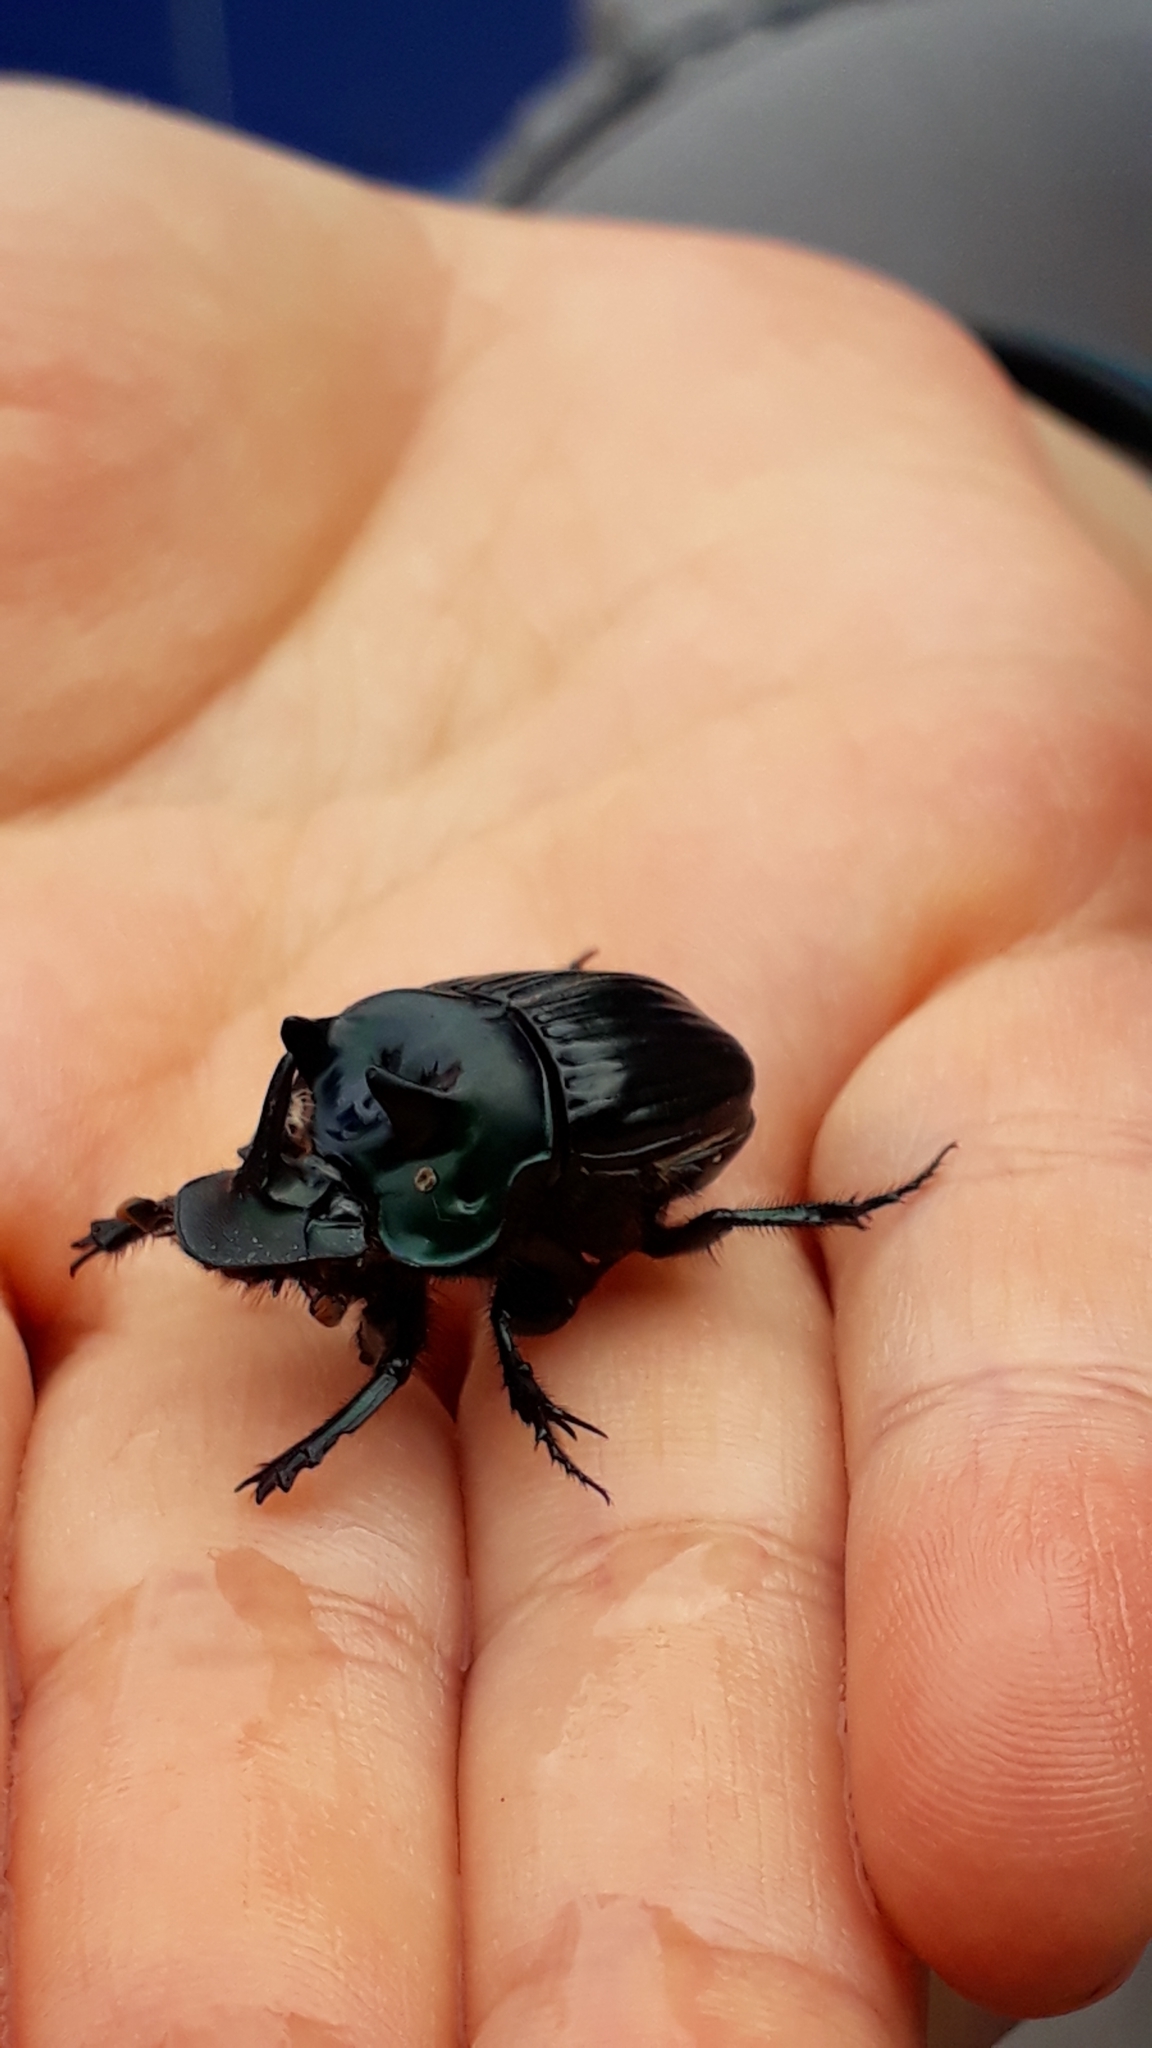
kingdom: Animalia
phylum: Arthropoda
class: Insecta
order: Coleoptera
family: Scarabaeidae
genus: Phanaeus
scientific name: Phanaeus haroldi
